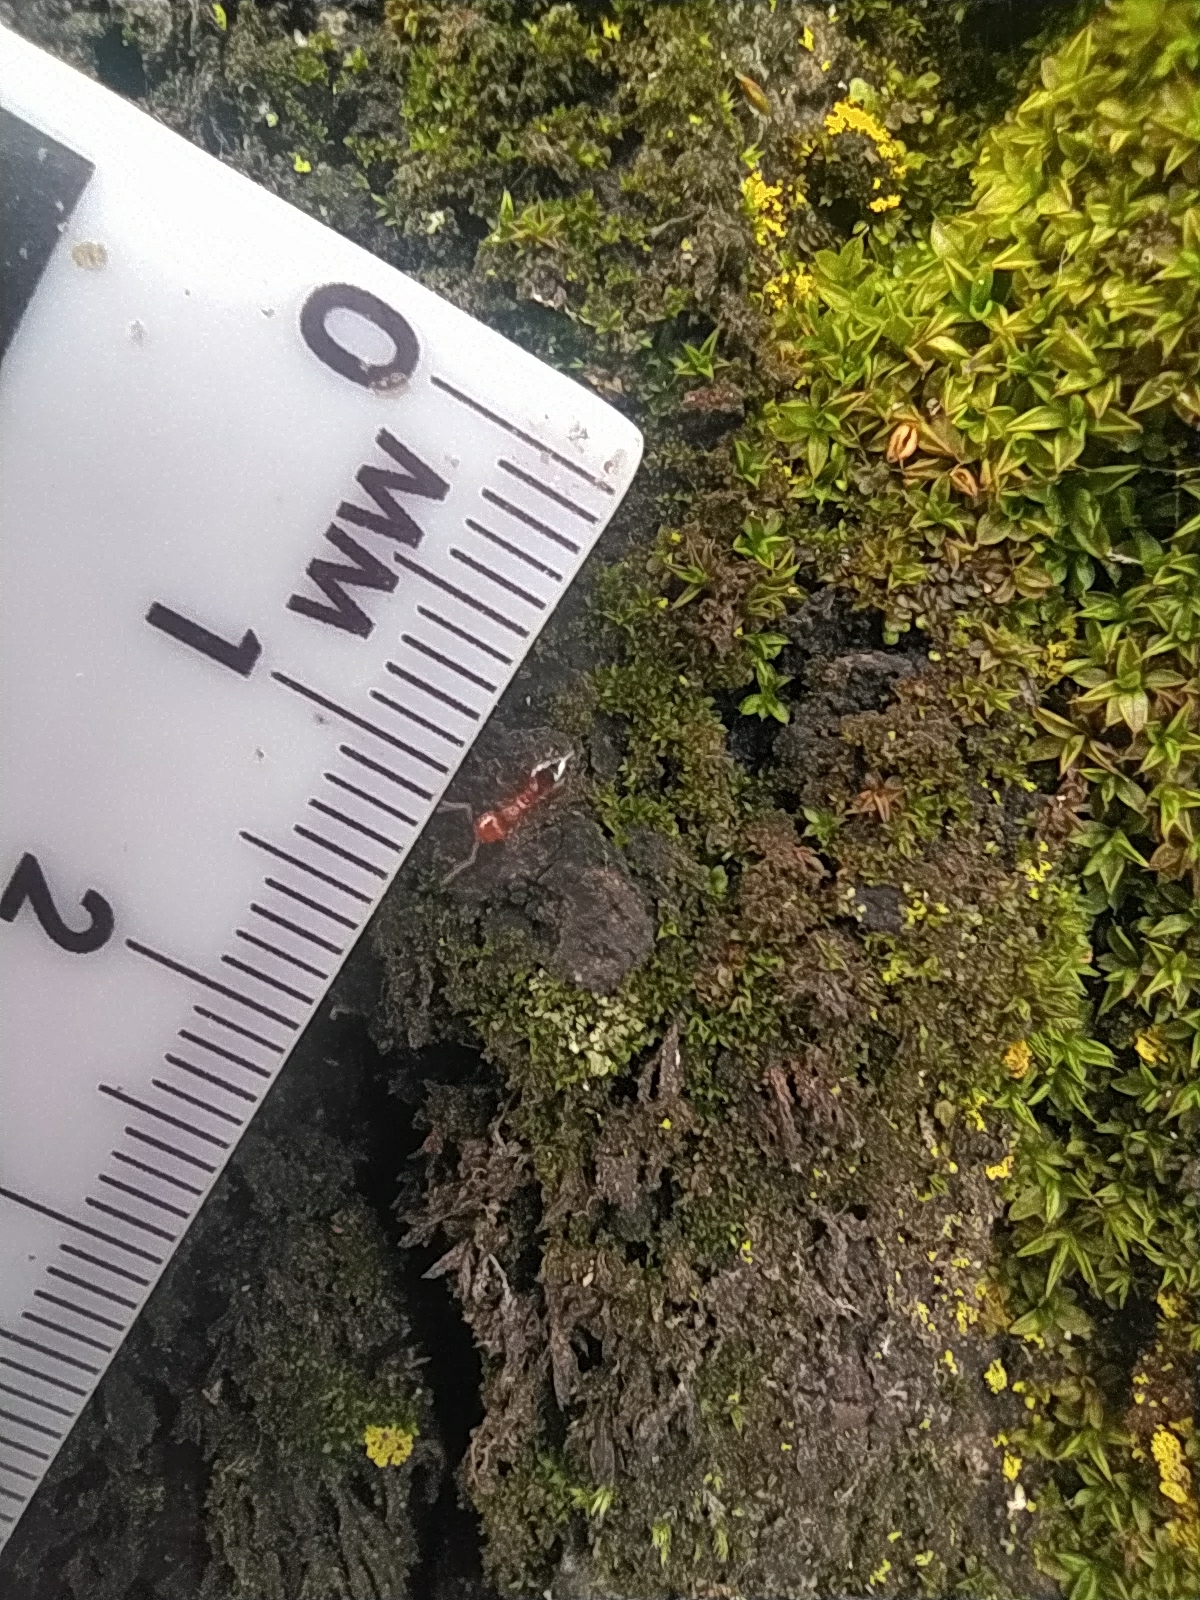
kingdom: Animalia
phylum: Arthropoda
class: Insecta
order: Hymenoptera
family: Formicidae
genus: Crematogaster
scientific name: Crematogaster schmidti
